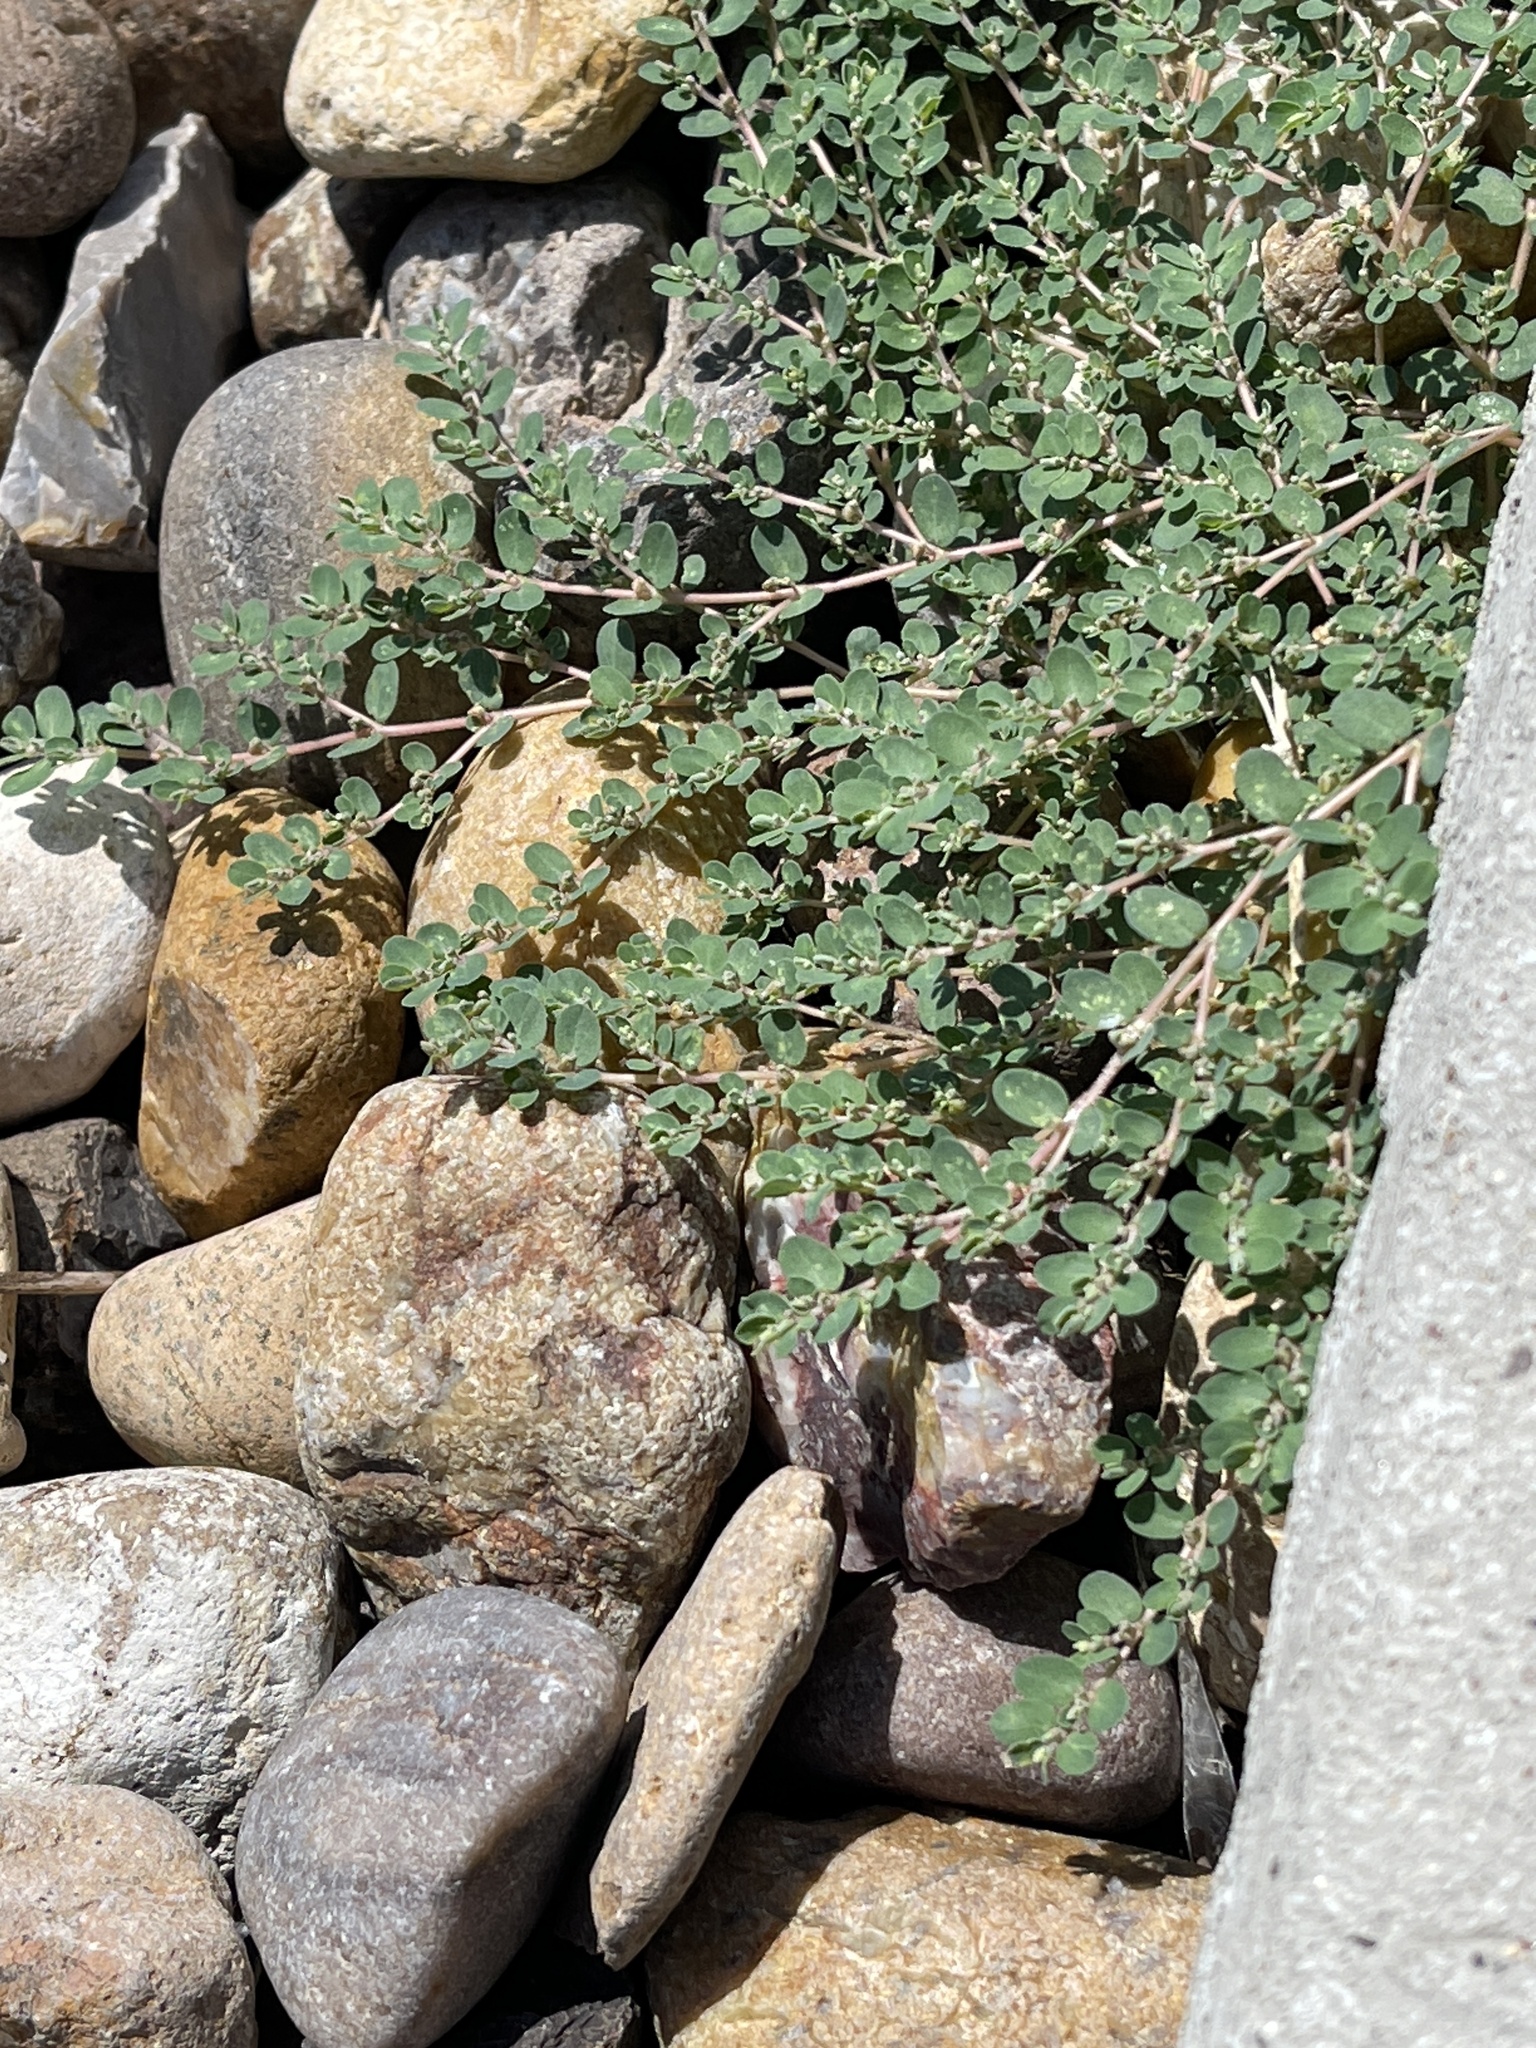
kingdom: Plantae
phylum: Tracheophyta
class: Magnoliopsida
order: Malpighiales
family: Euphorbiaceae
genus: Euphorbia
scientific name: Euphorbia prostrata
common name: Prostrate sandmat
